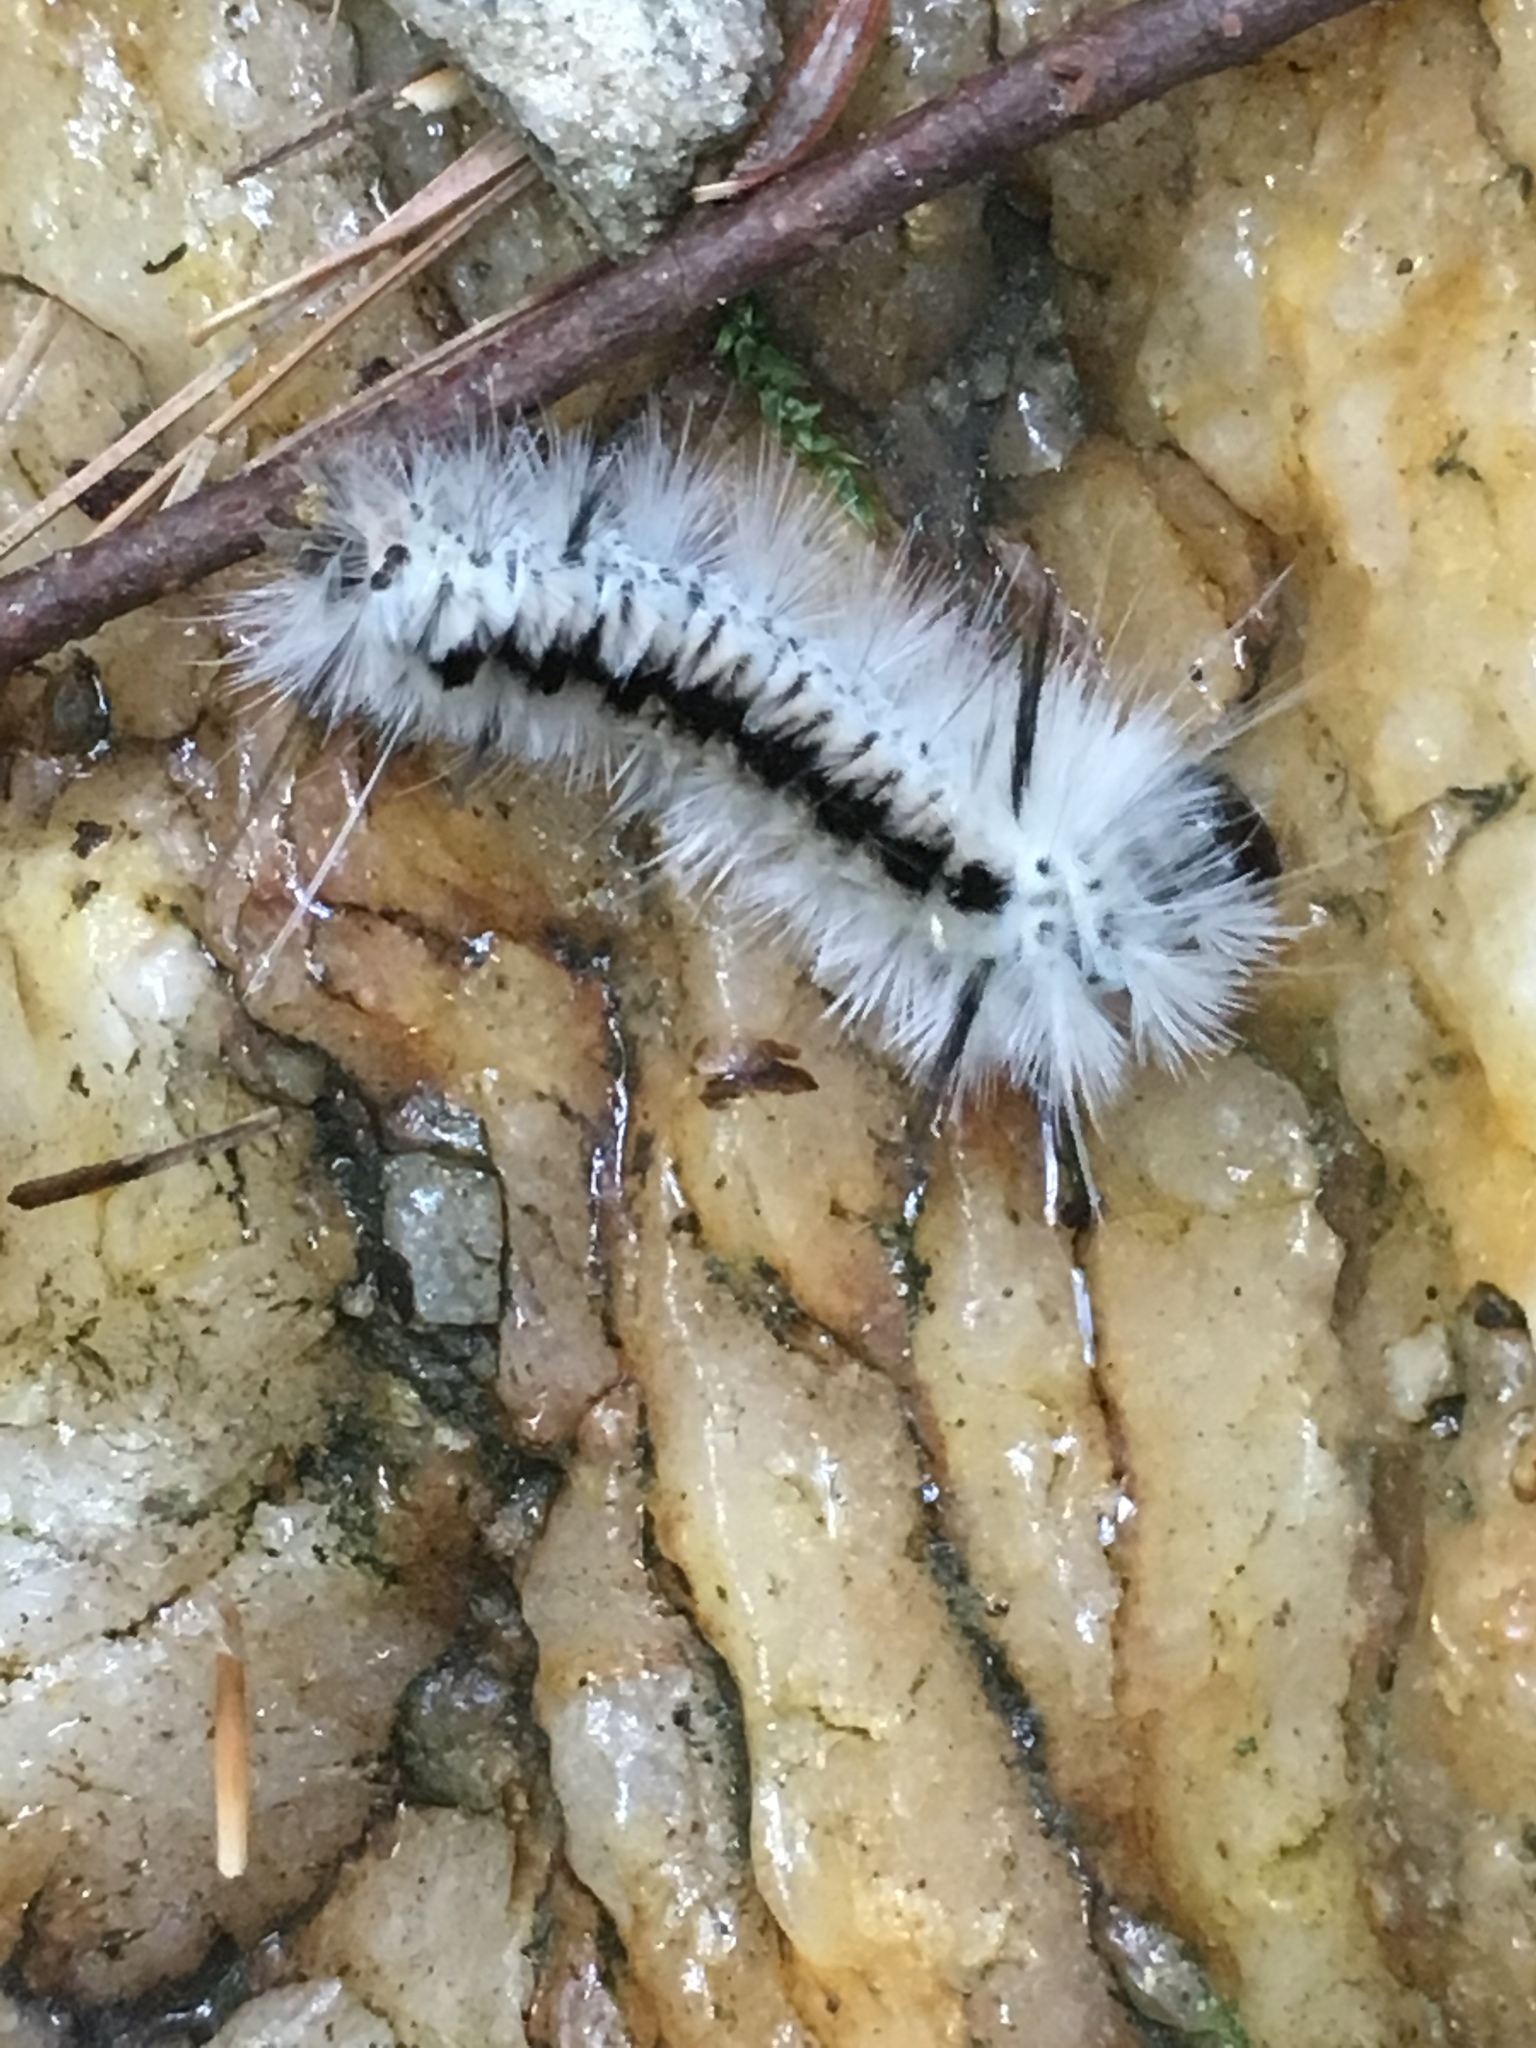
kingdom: Animalia
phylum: Arthropoda
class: Insecta
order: Lepidoptera
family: Erebidae
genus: Lophocampa
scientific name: Lophocampa caryae
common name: Hickory tussock moth
